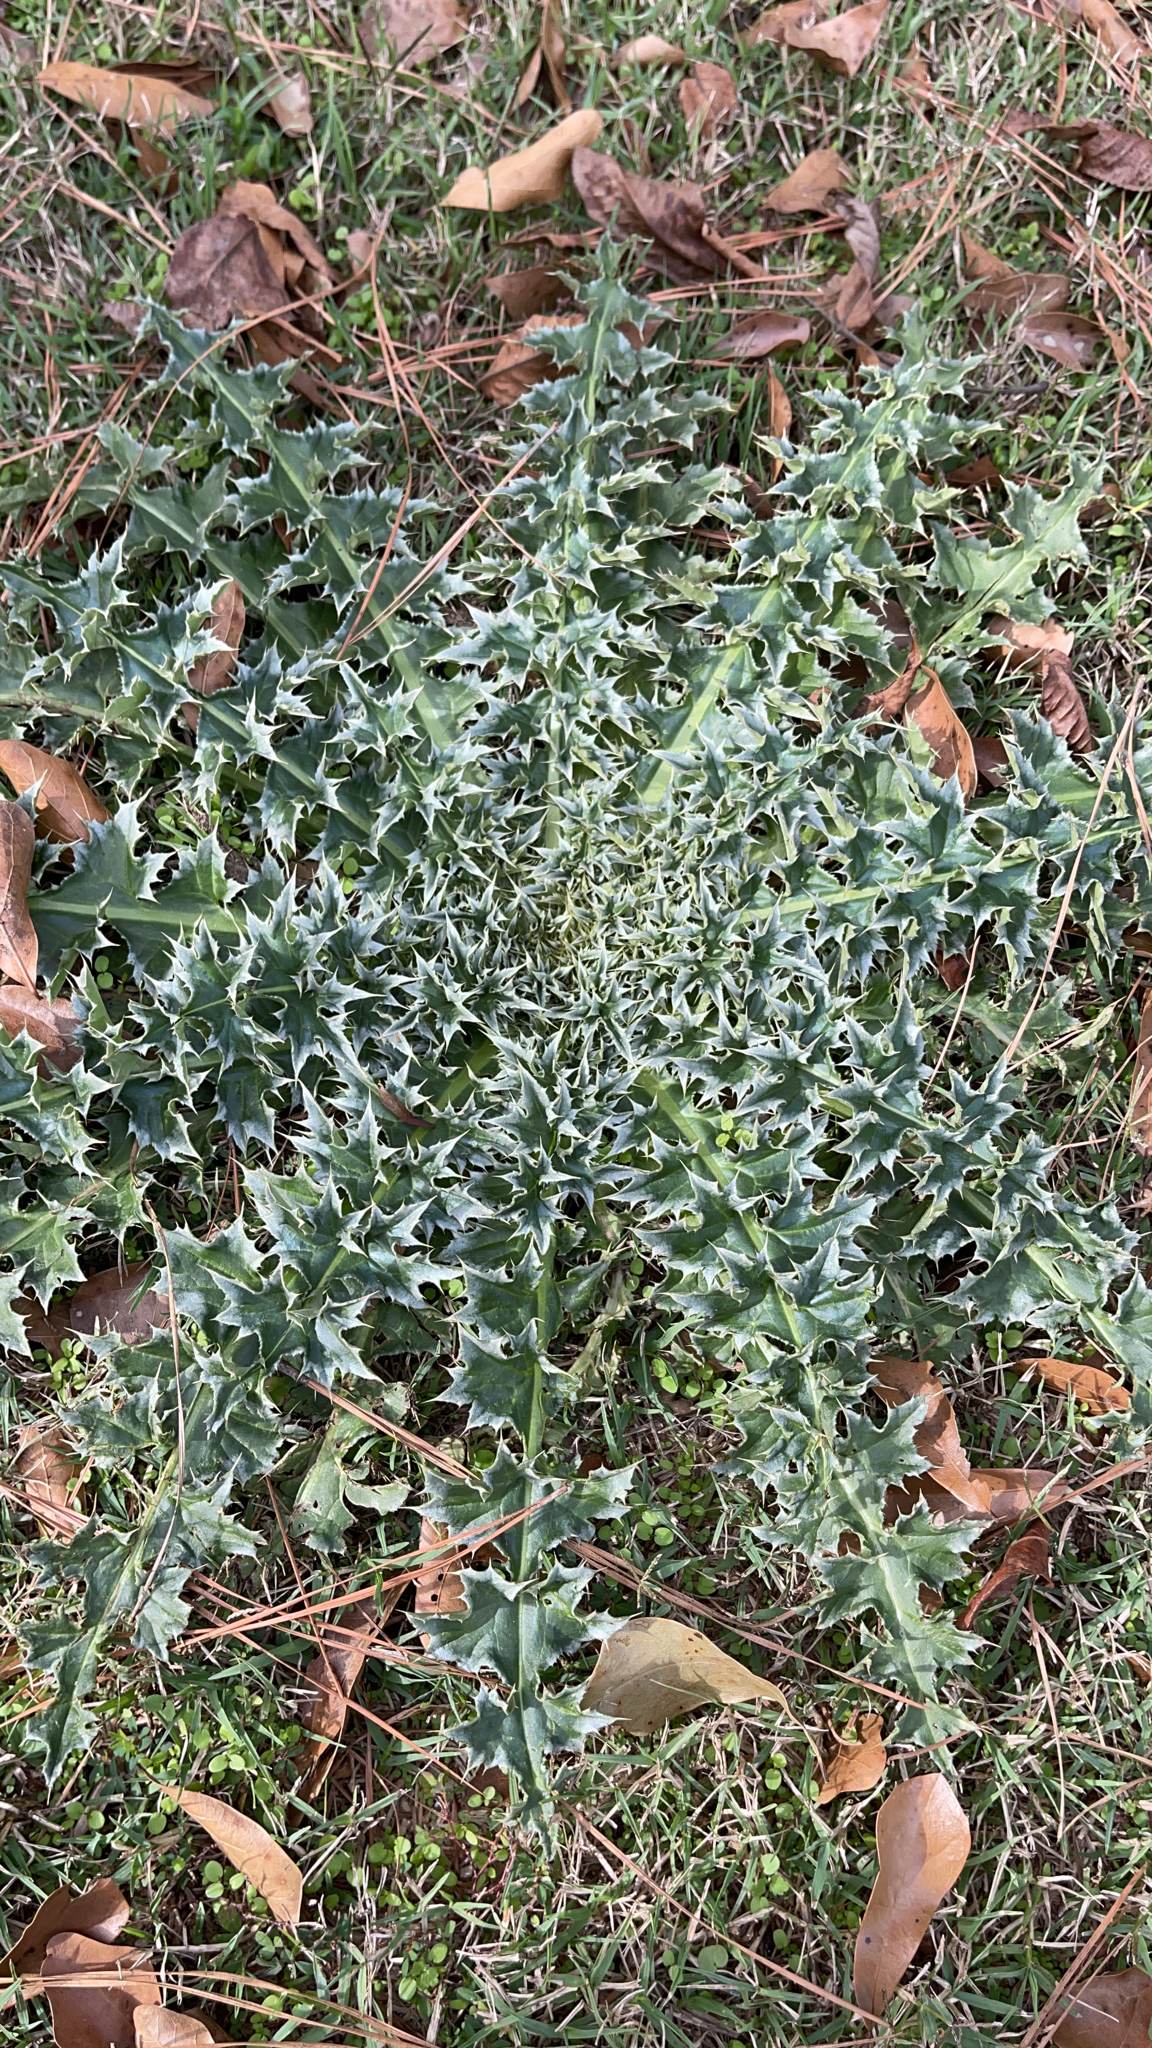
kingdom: Plantae
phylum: Tracheophyta
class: Magnoliopsida
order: Asterales
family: Asteraceae
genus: Carduus
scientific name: Carduus nutans
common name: Musk thistle
